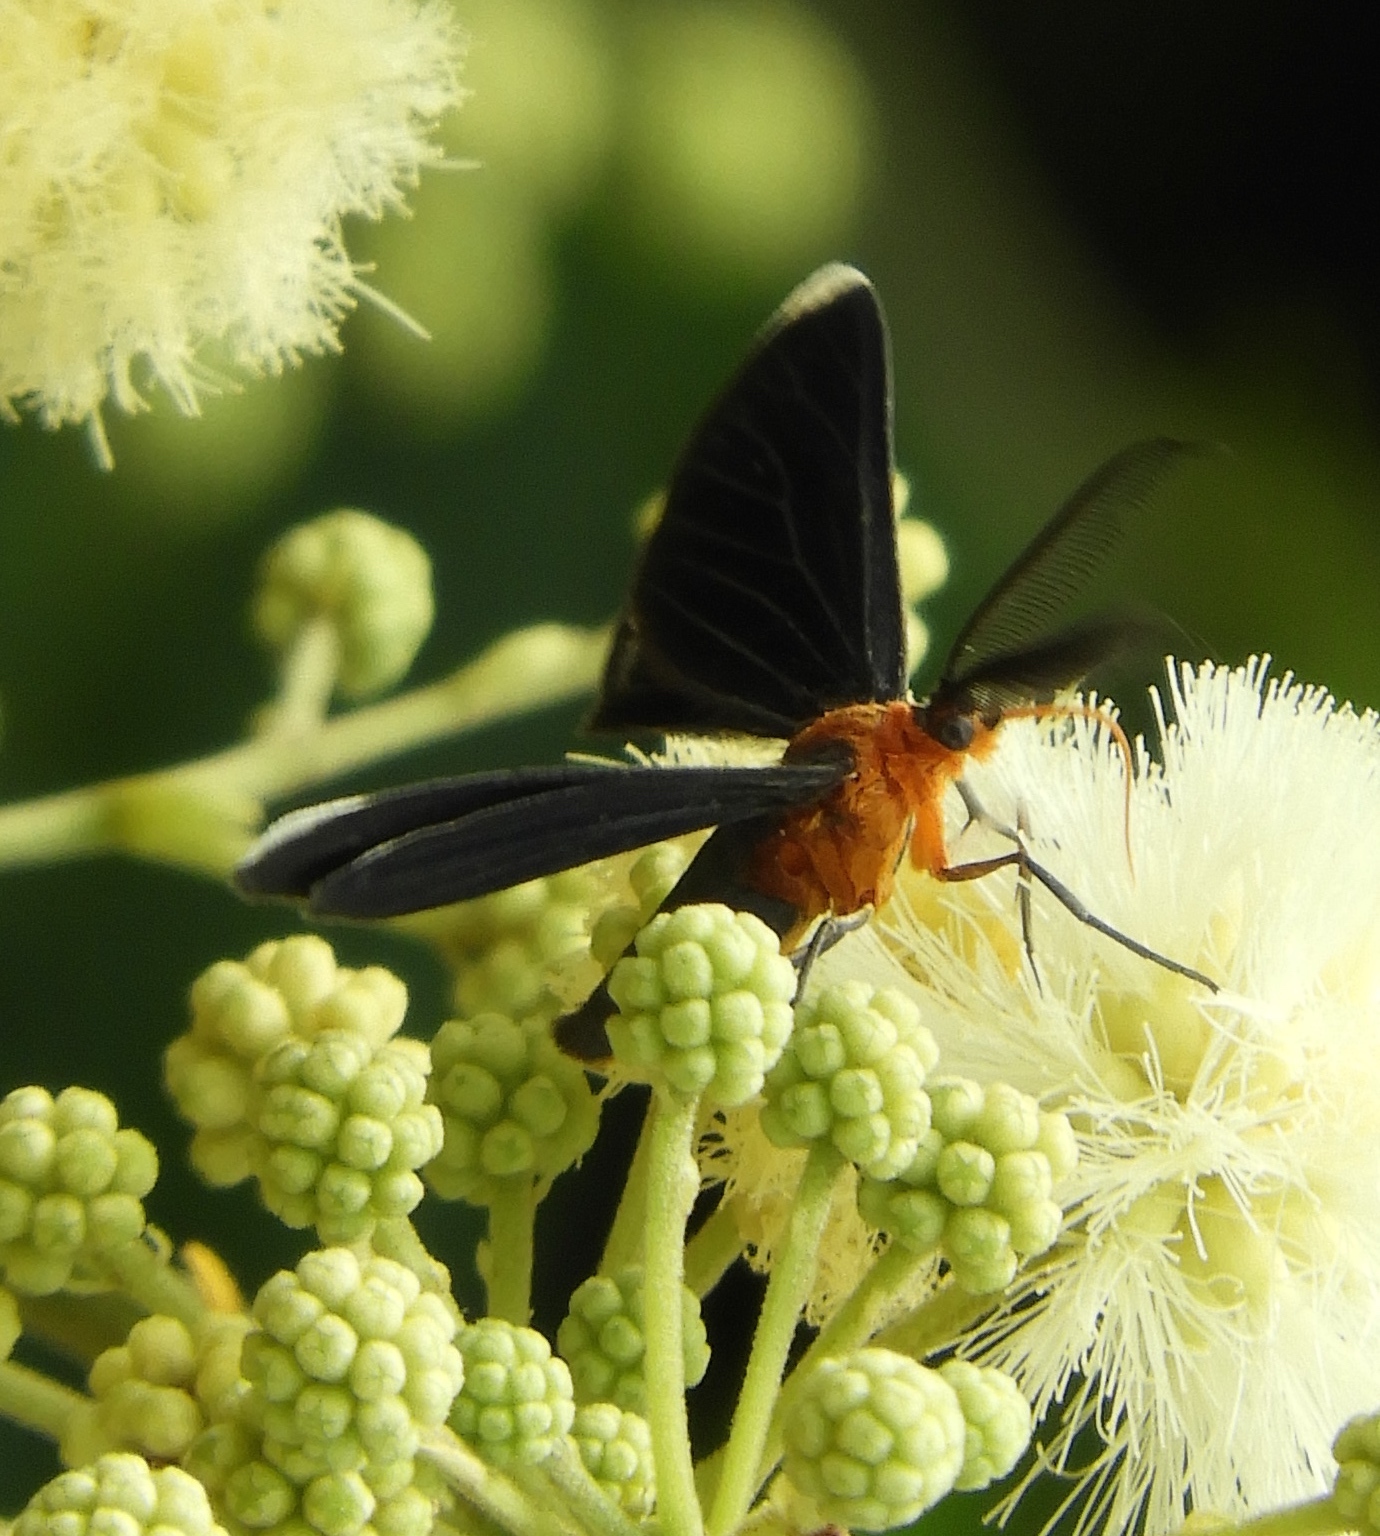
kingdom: Animalia
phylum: Arthropoda
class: Insecta
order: Lepidoptera
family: Geometridae
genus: Melanchroia
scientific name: Melanchroia chephise
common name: White-tipped black
